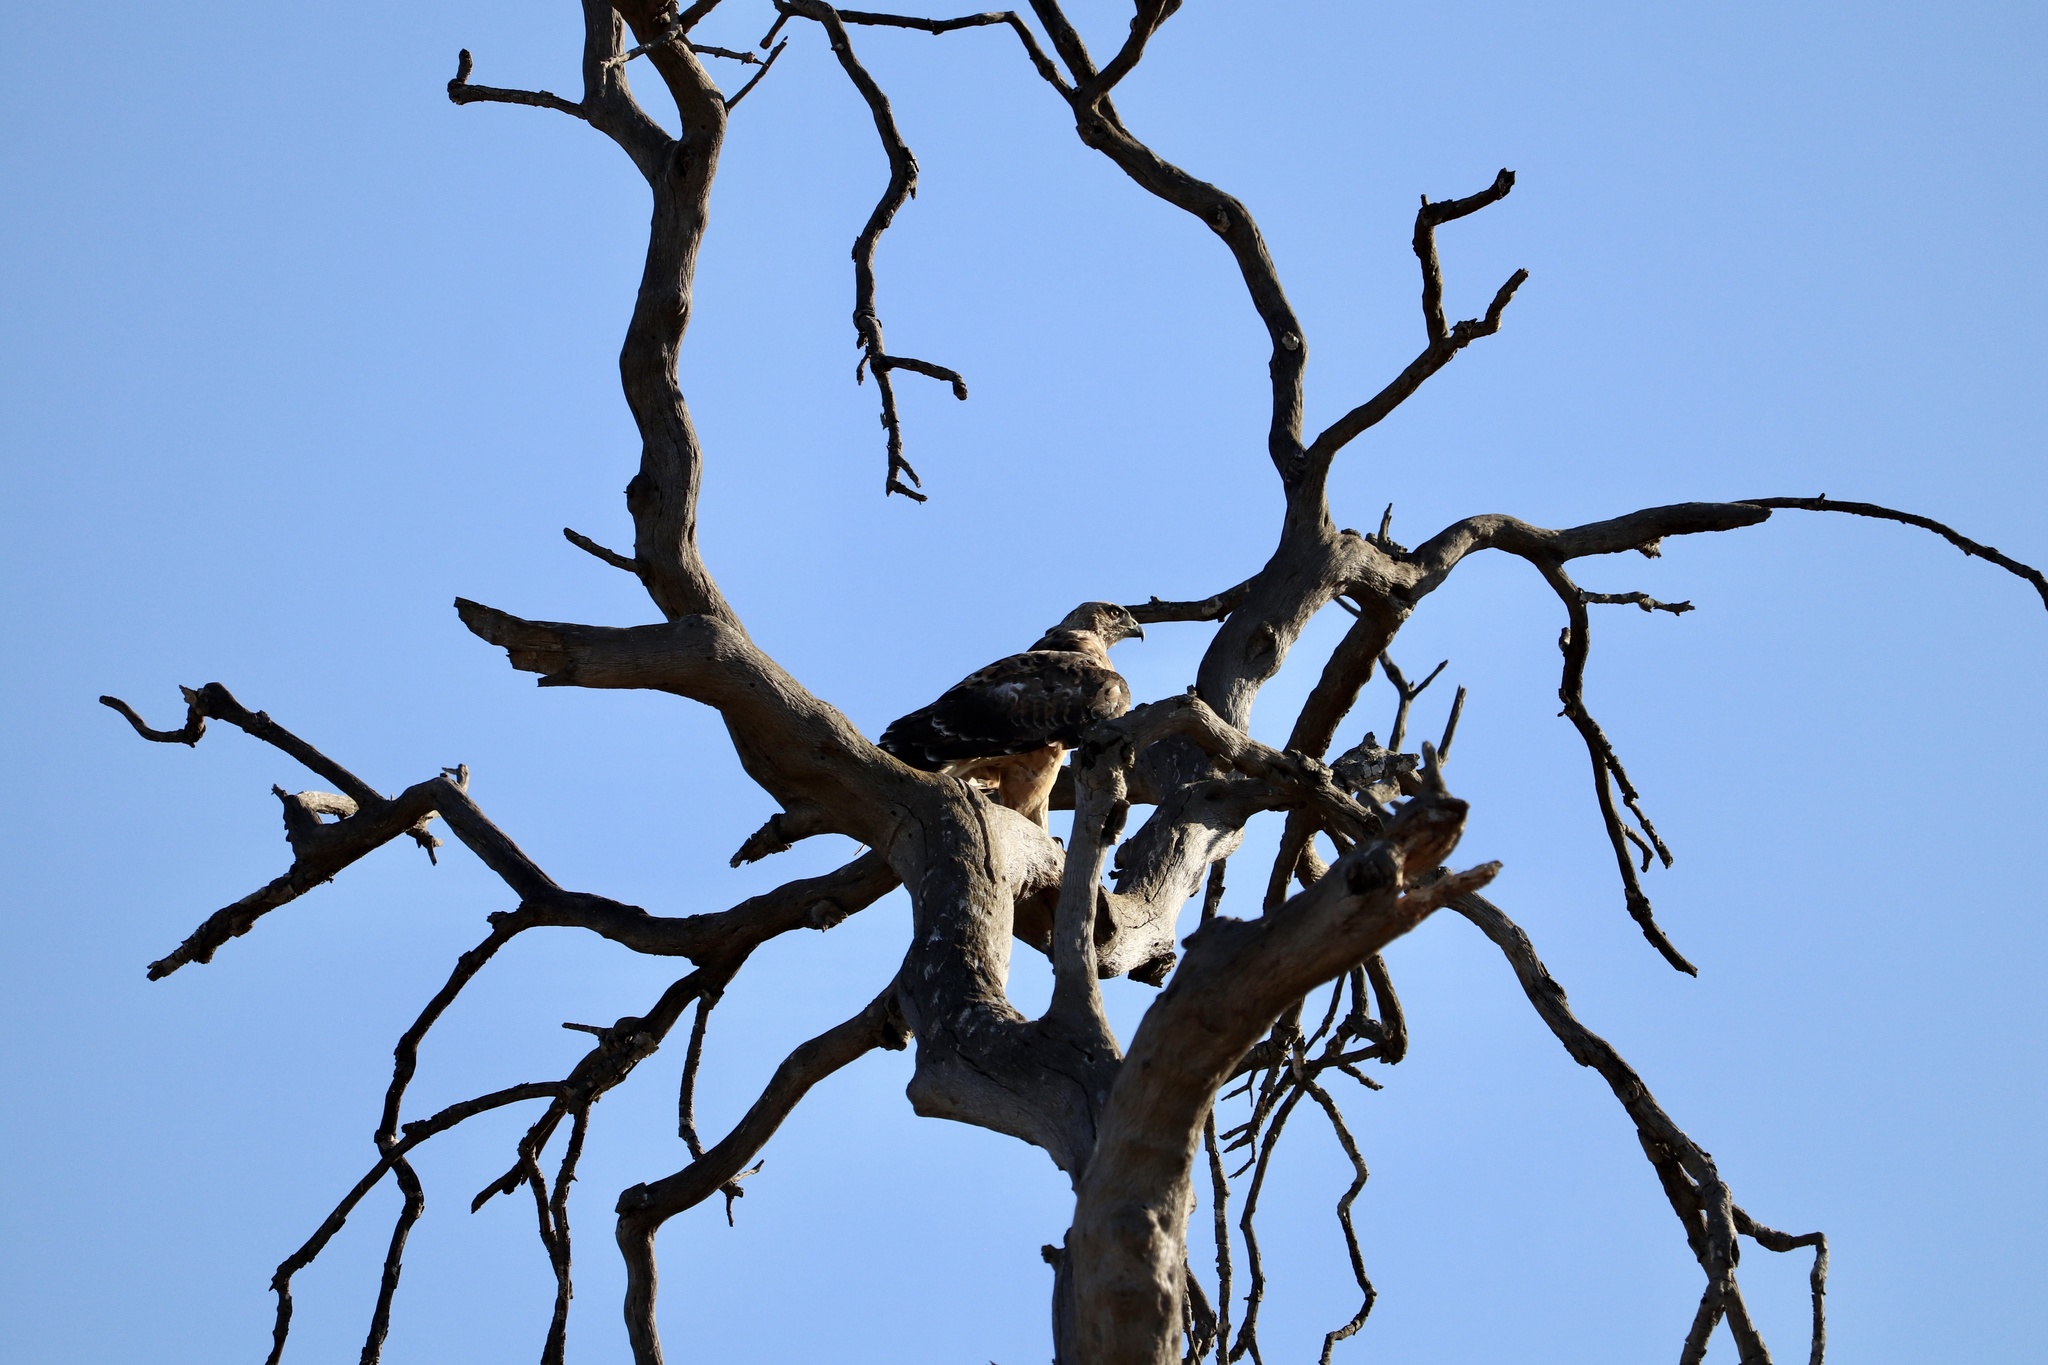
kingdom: Animalia
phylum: Chordata
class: Aves
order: Accipitriformes
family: Accipitridae
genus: Buteo
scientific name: Buteo jamaicensis
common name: Red-tailed hawk
